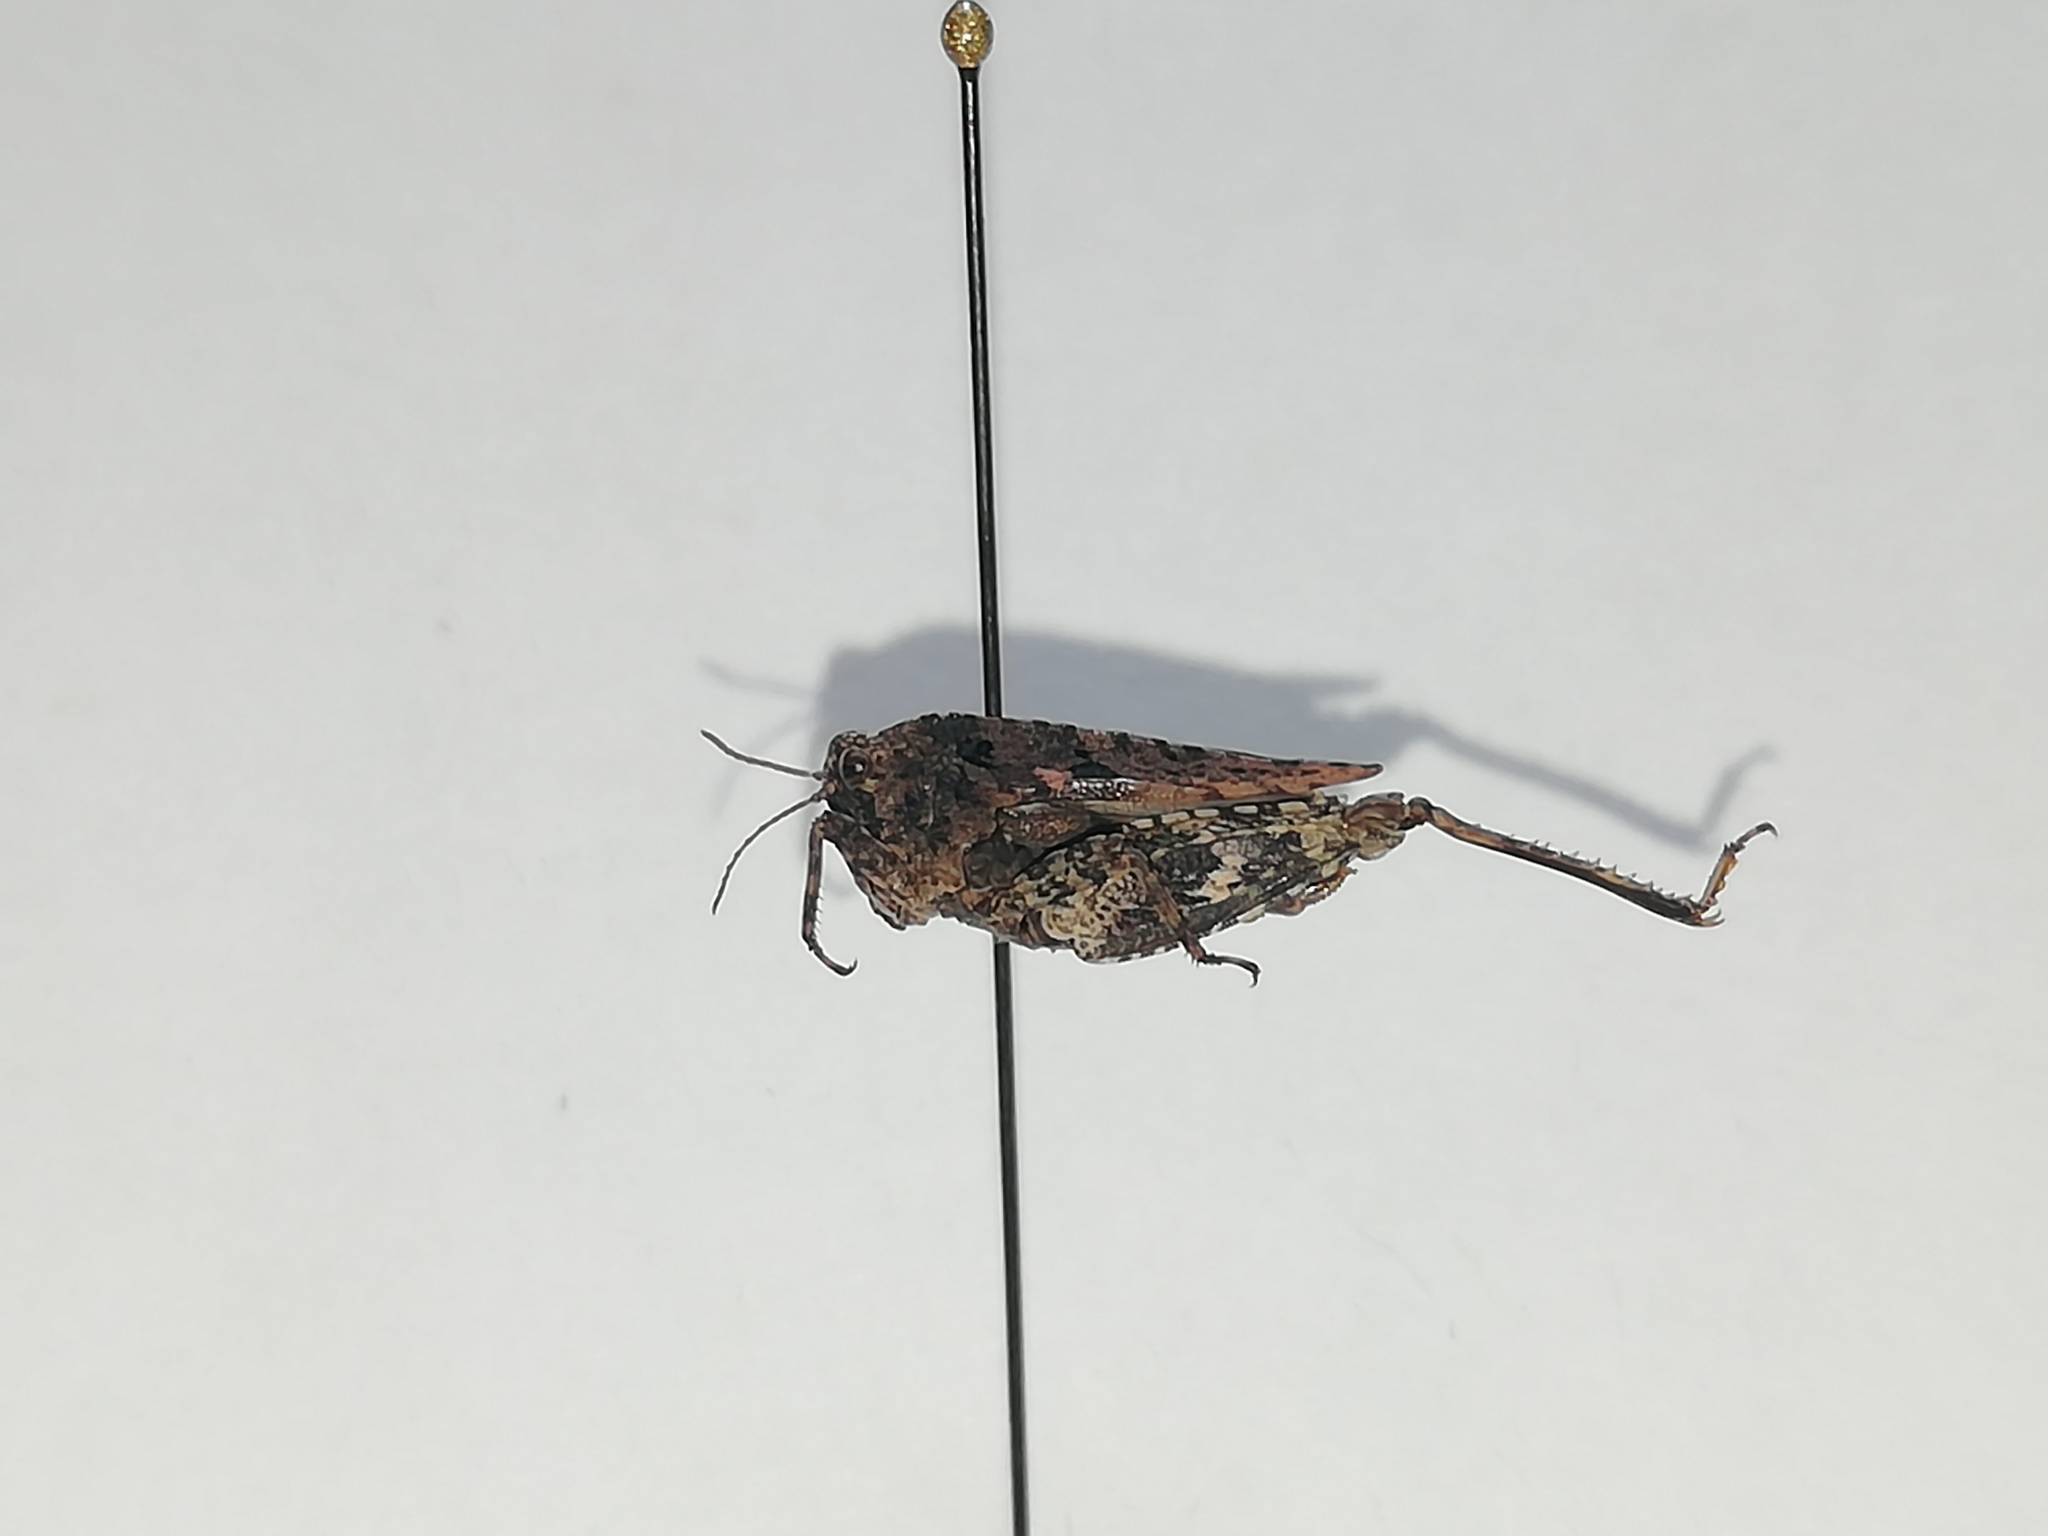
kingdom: Animalia
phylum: Arthropoda
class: Insecta
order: Orthoptera
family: Tetrigidae
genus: Tetrix
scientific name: Tetrix tenuicornis
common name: Long-horned groundhopper
